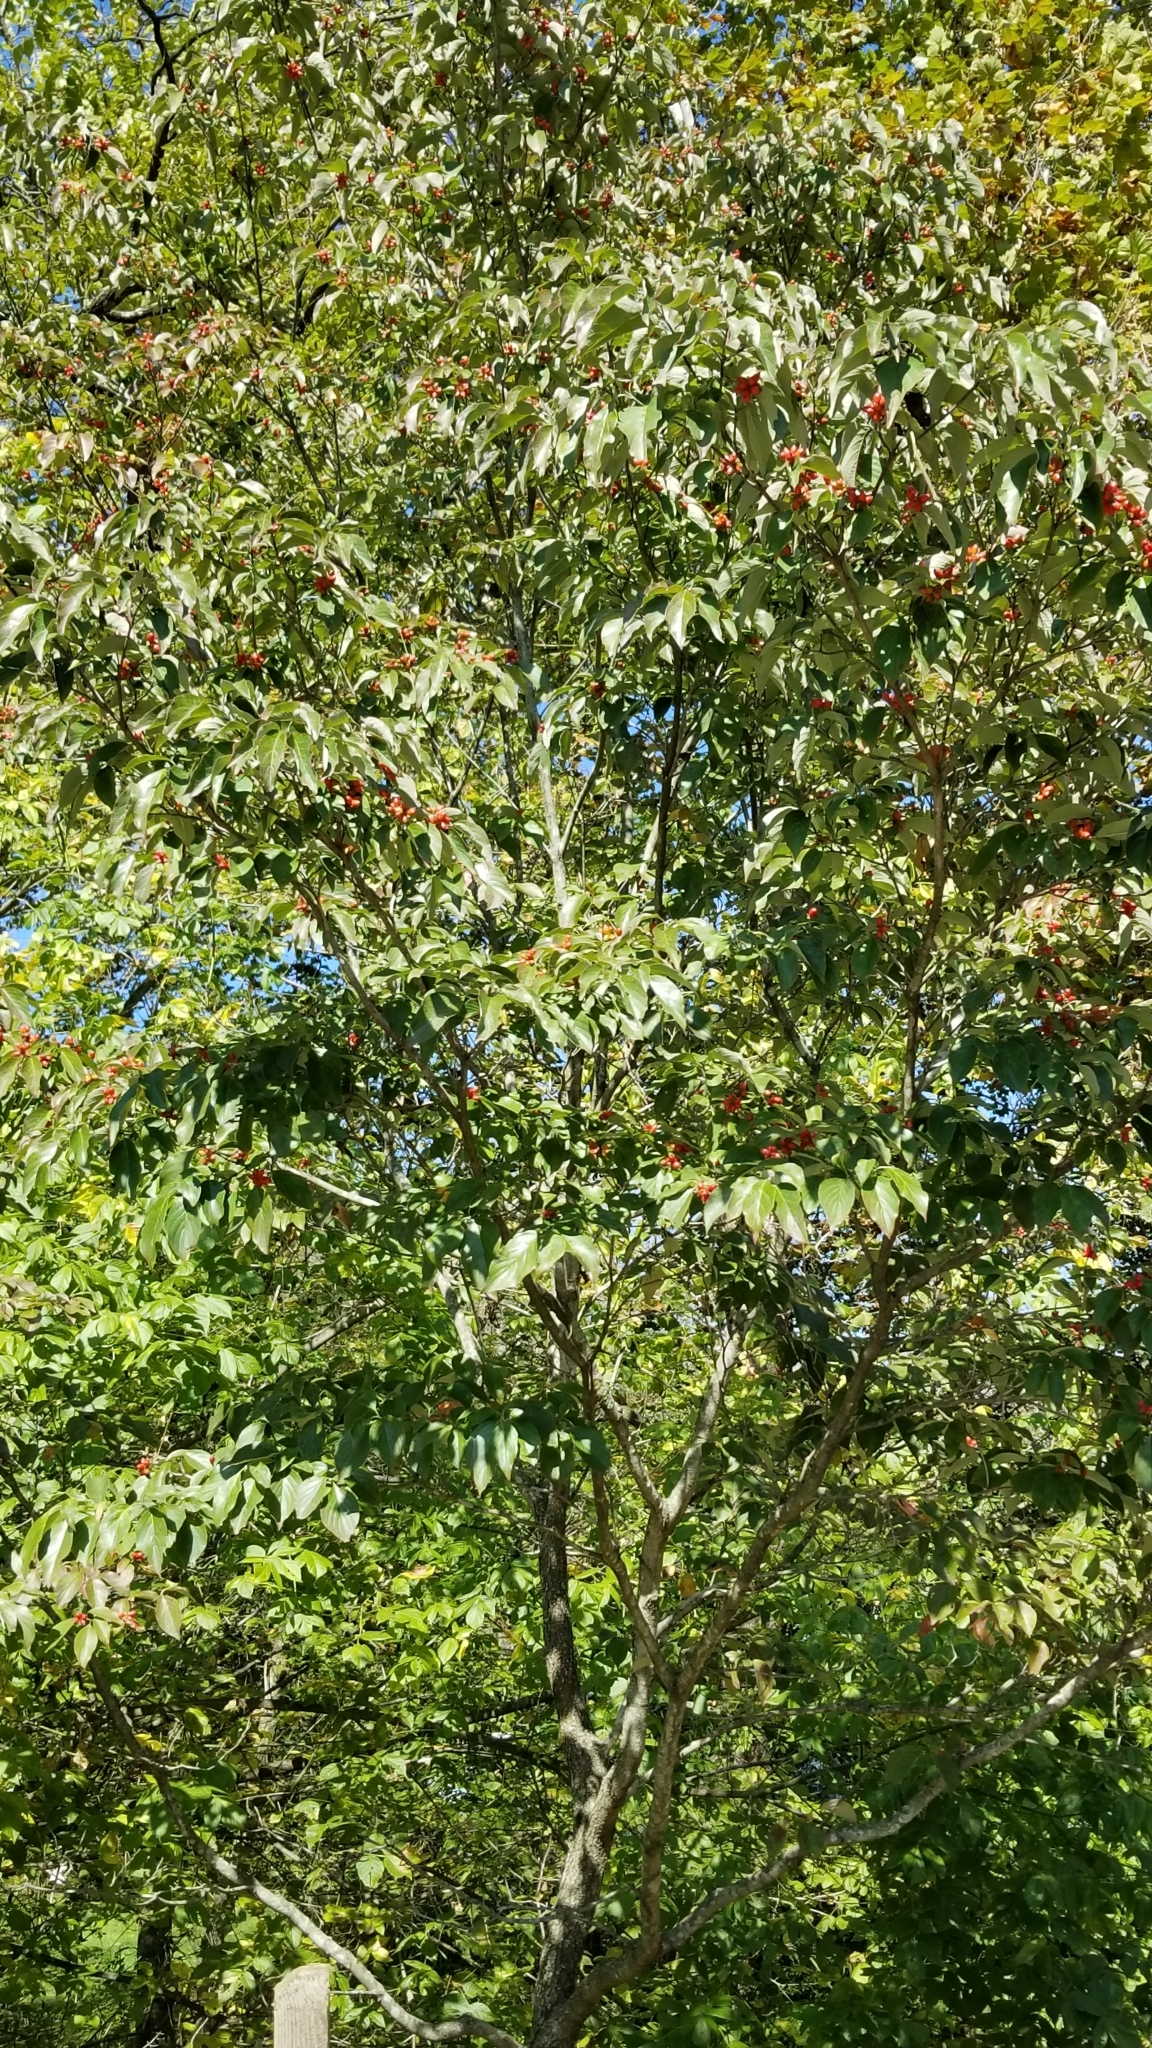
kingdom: Plantae
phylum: Tracheophyta
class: Magnoliopsida
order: Cornales
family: Cornaceae
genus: Cornus
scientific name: Cornus florida
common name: Flowering dogwood
